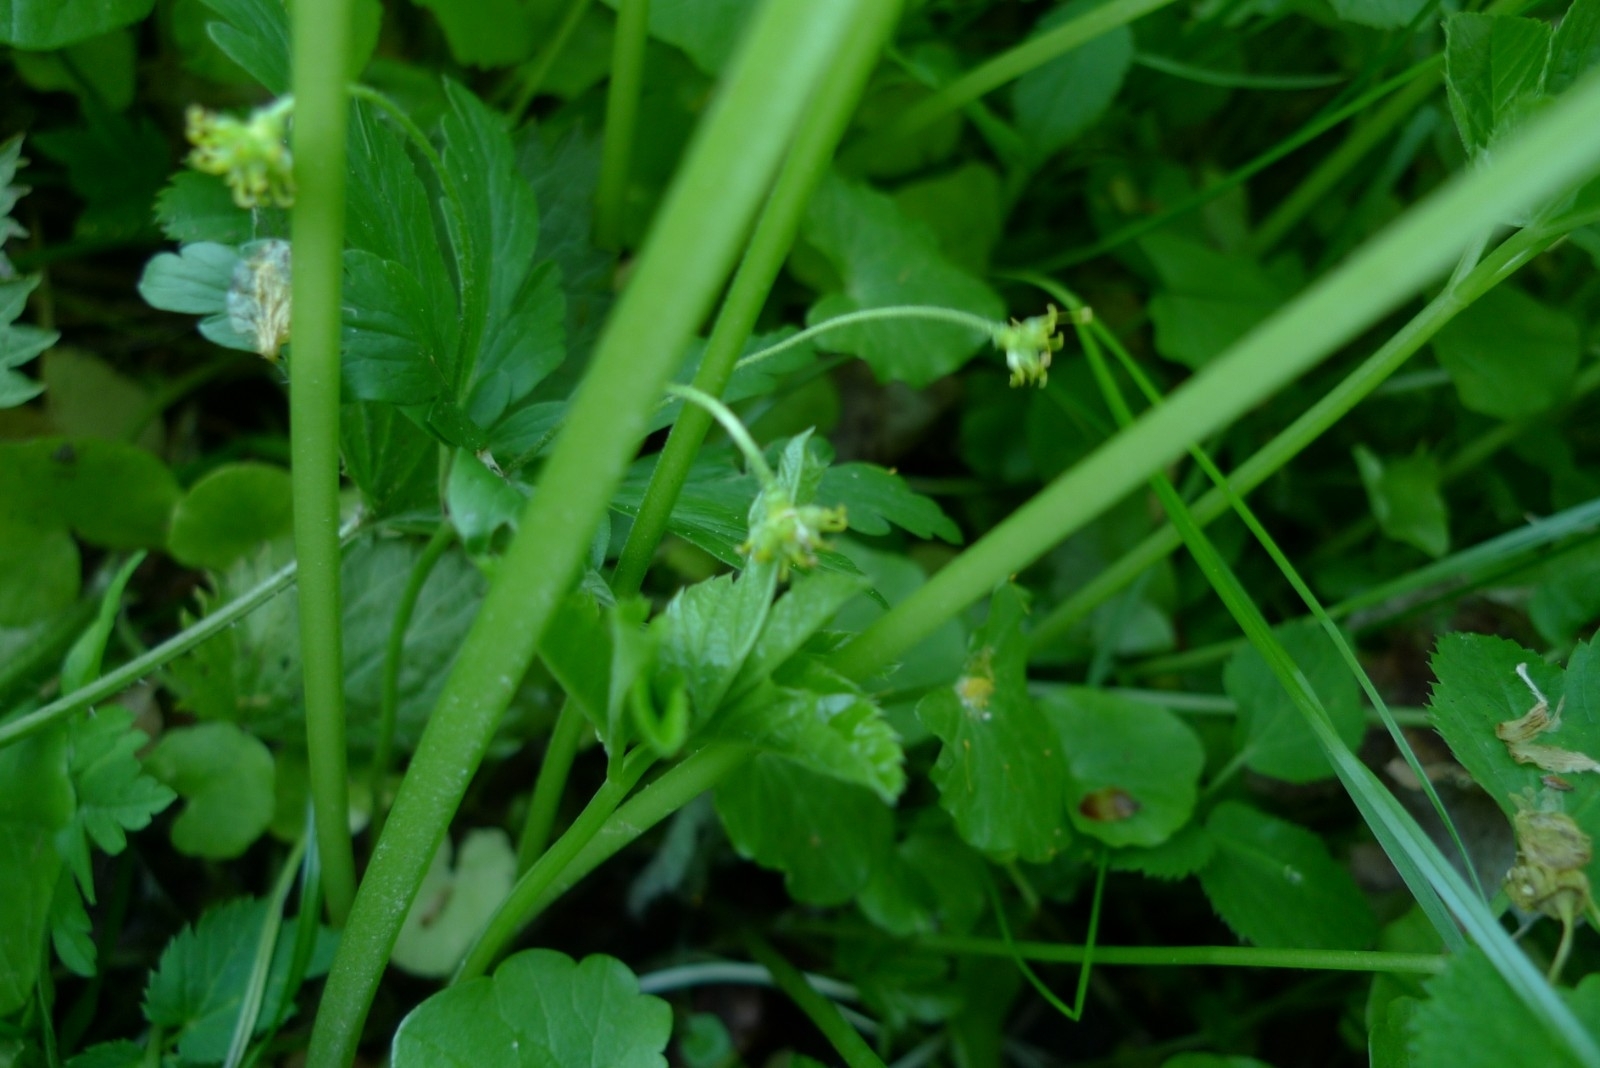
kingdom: Plantae
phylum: Tracheophyta
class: Magnoliopsida
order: Ranunculales
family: Ranunculaceae
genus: Anemone
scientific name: Anemone ranunculoides
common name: Yellow anemone
